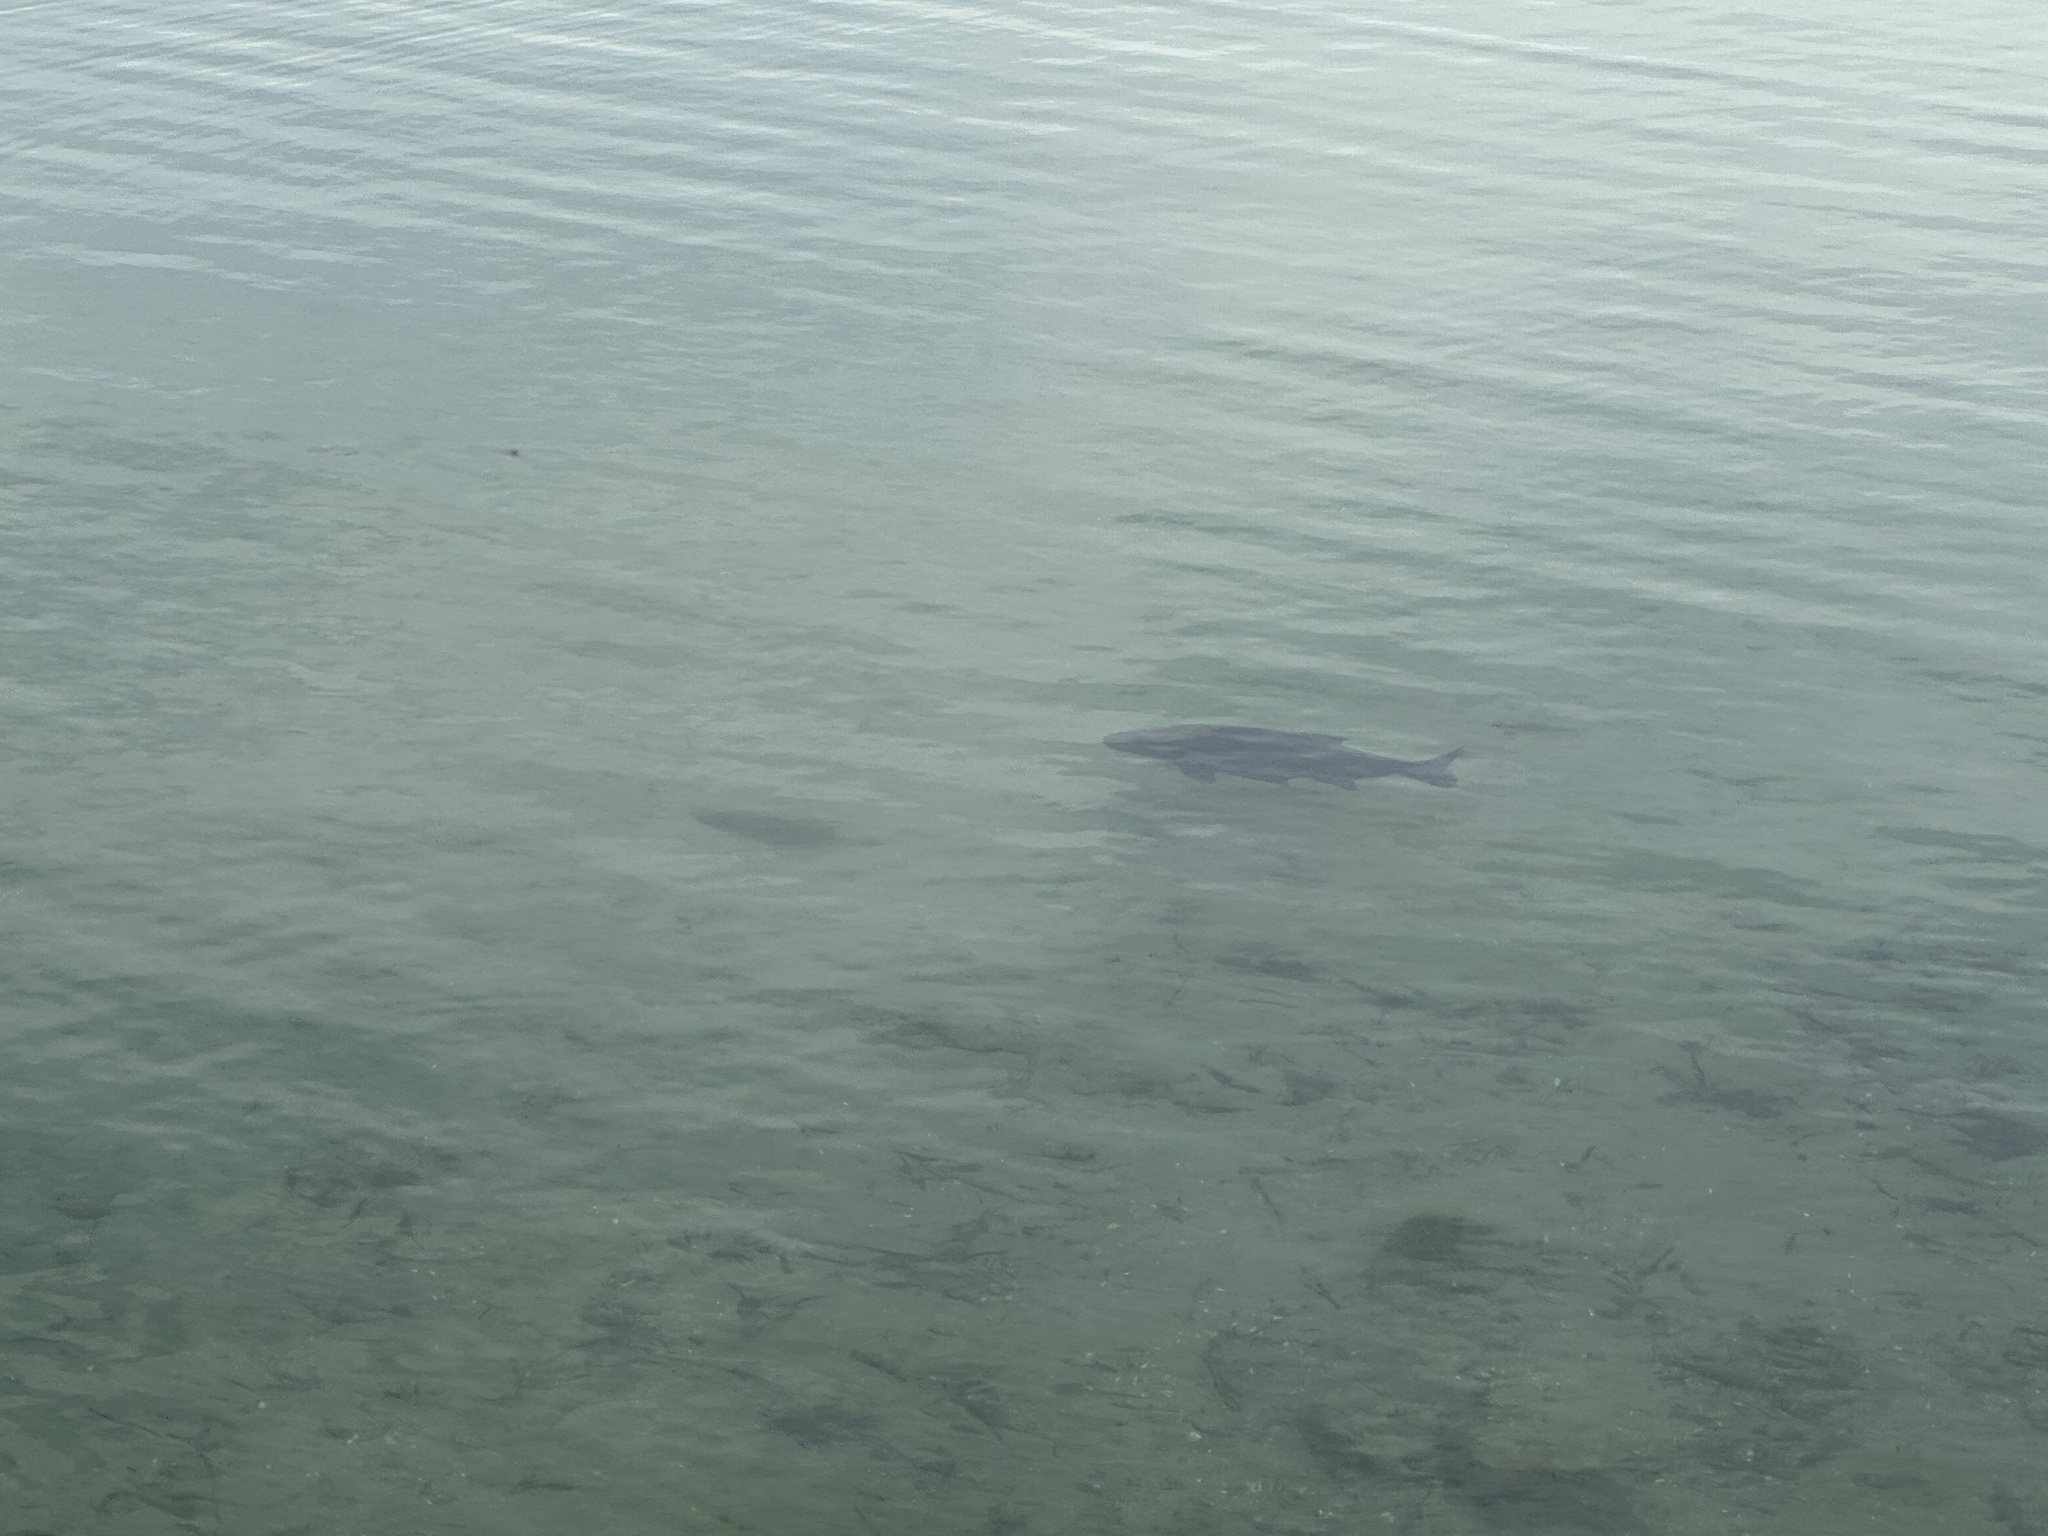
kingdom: Animalia
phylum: Chordata
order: Cypriniformes
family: Cyprinidae
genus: Abramis
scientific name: Abramis brama
